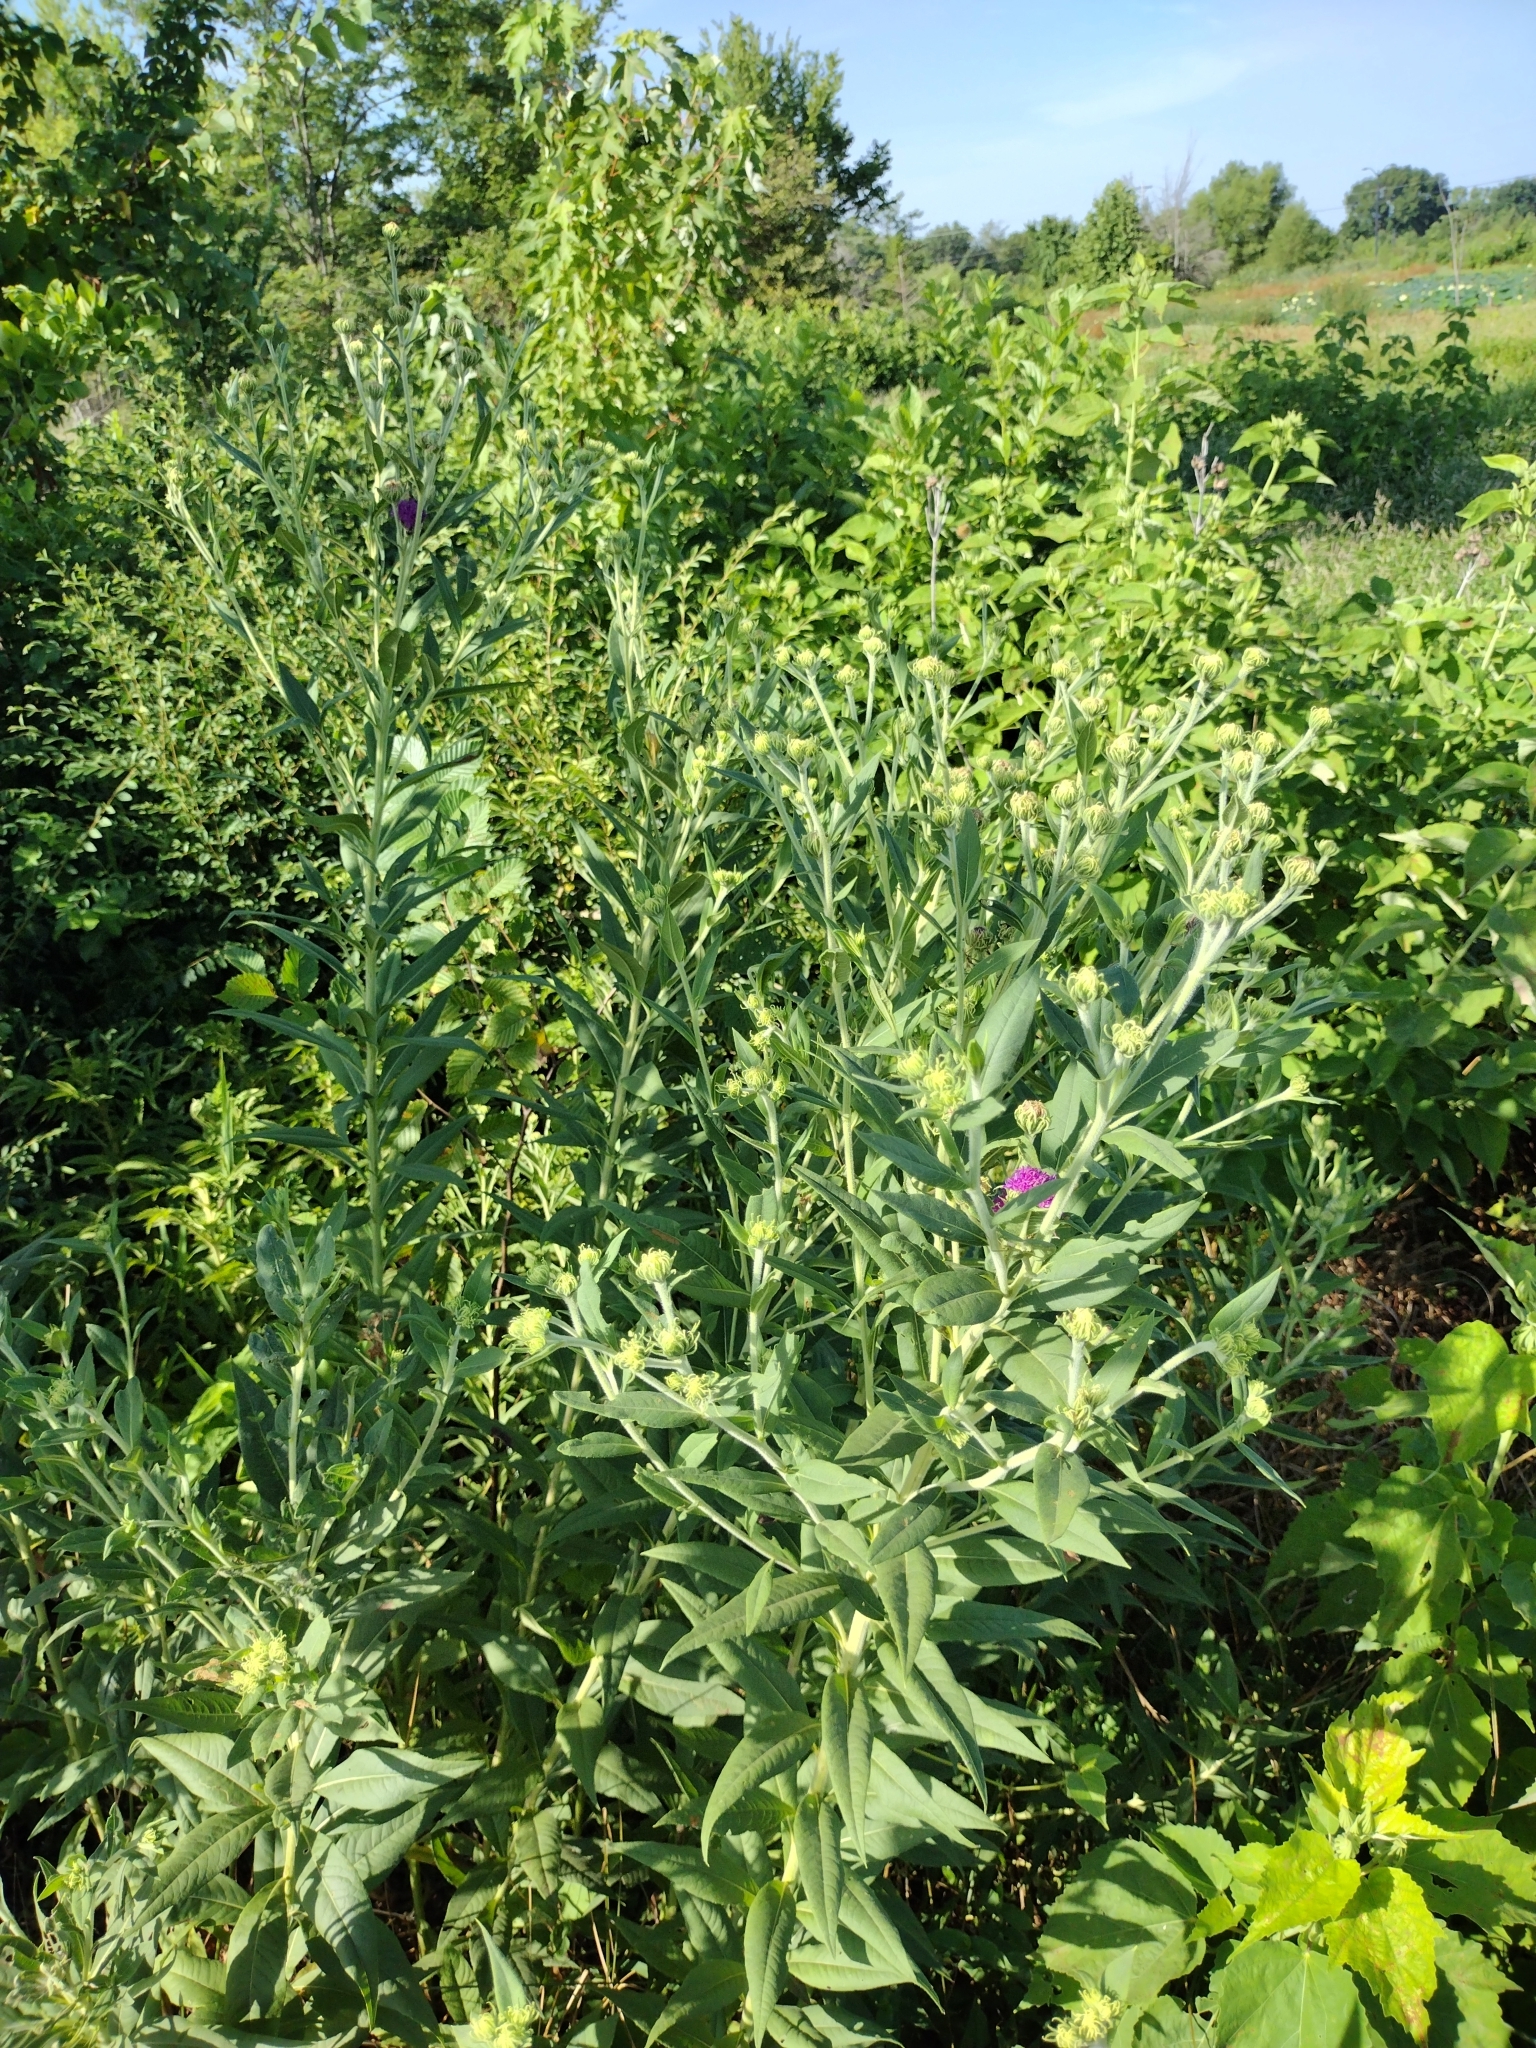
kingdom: Plantae
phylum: Tracheophyta
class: Magnoliopsida
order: Asterales
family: Asteraceae
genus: Vernonia
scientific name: Vernonia arkansana
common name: Ozark ironweed
